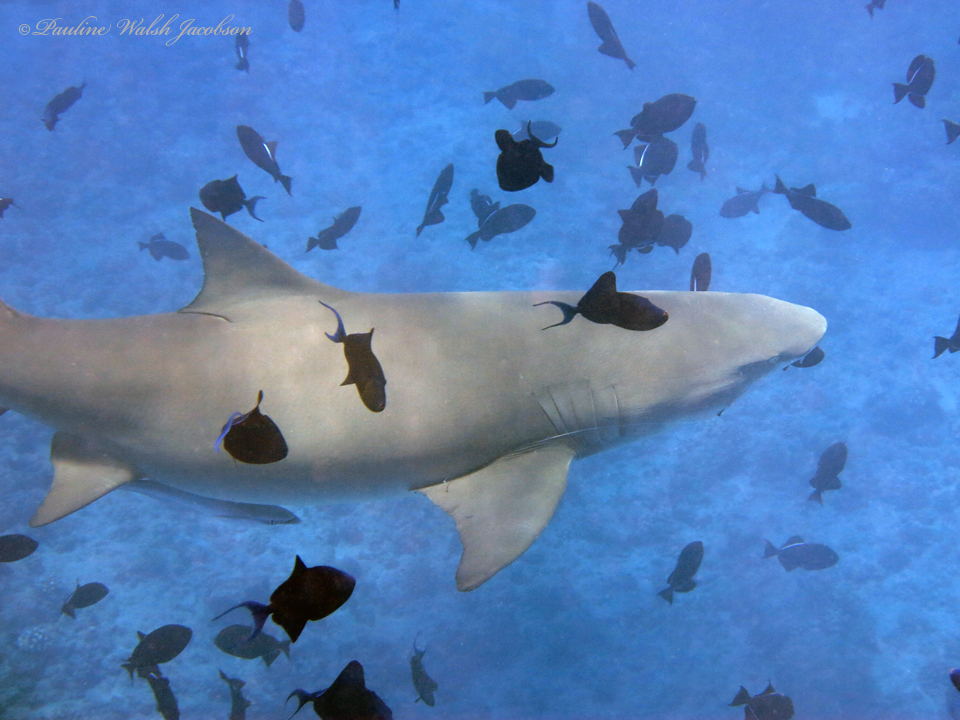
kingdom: Animalia
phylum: Chordata
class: Elasmobranchii
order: Carcharhiniformes
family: Carcharhinidae
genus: Negaprion
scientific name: Negaprion acutidens
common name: Lemon shark
